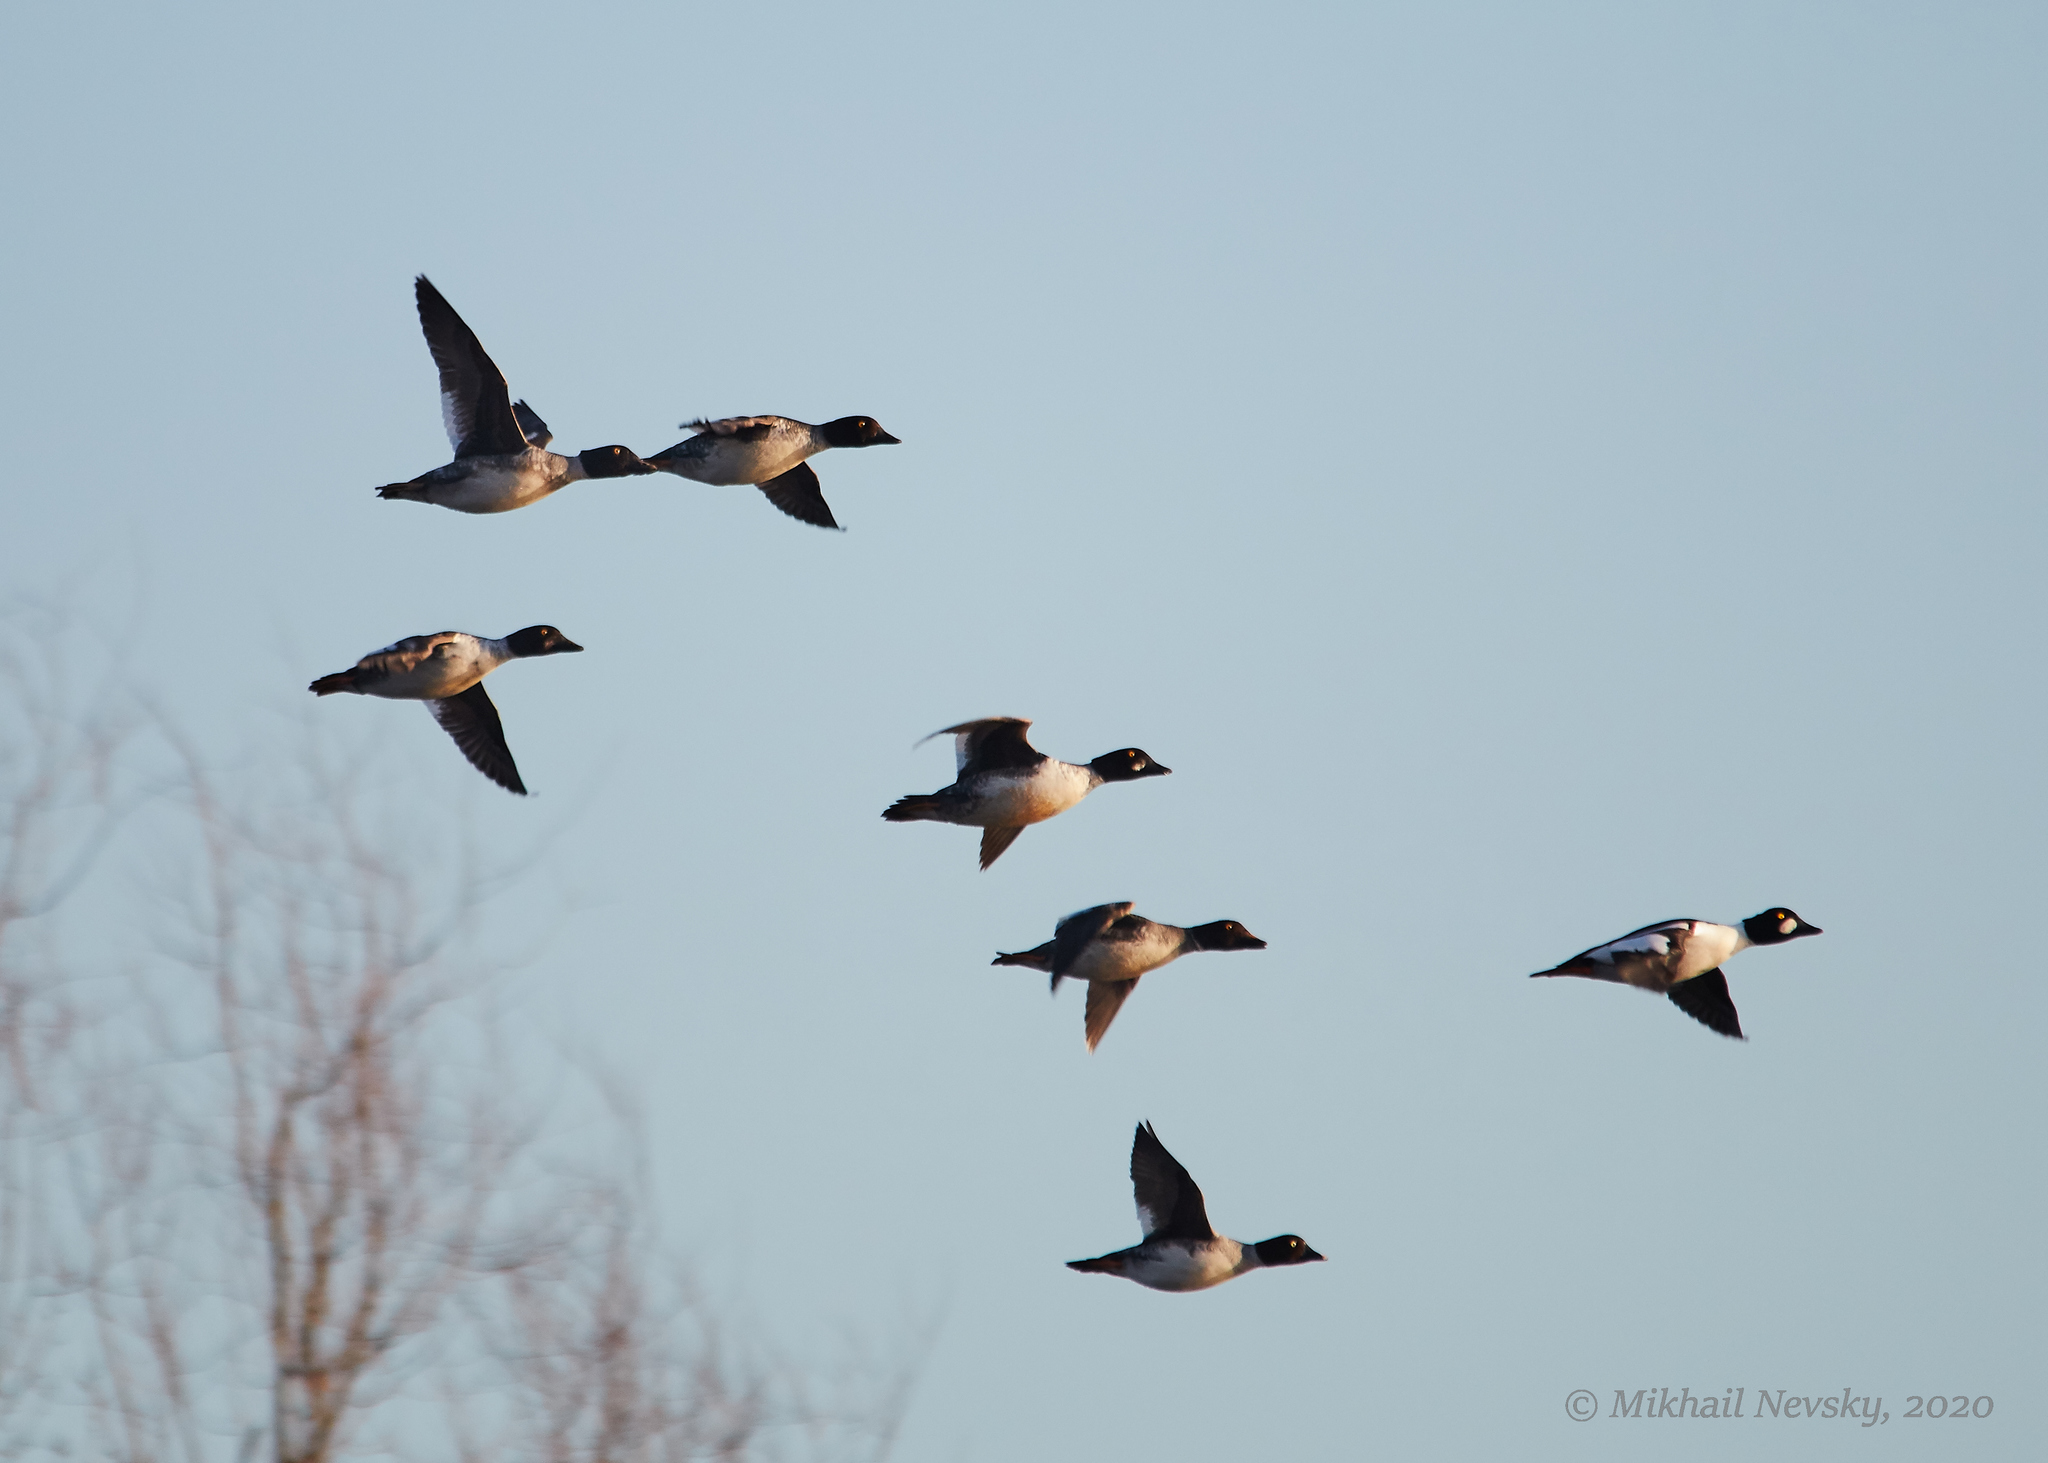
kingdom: Animalia
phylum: Chordata
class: Aves
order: Anseriformes
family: Anatidae
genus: Bucephala
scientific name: Bucephala clangula
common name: Common goldeneye
